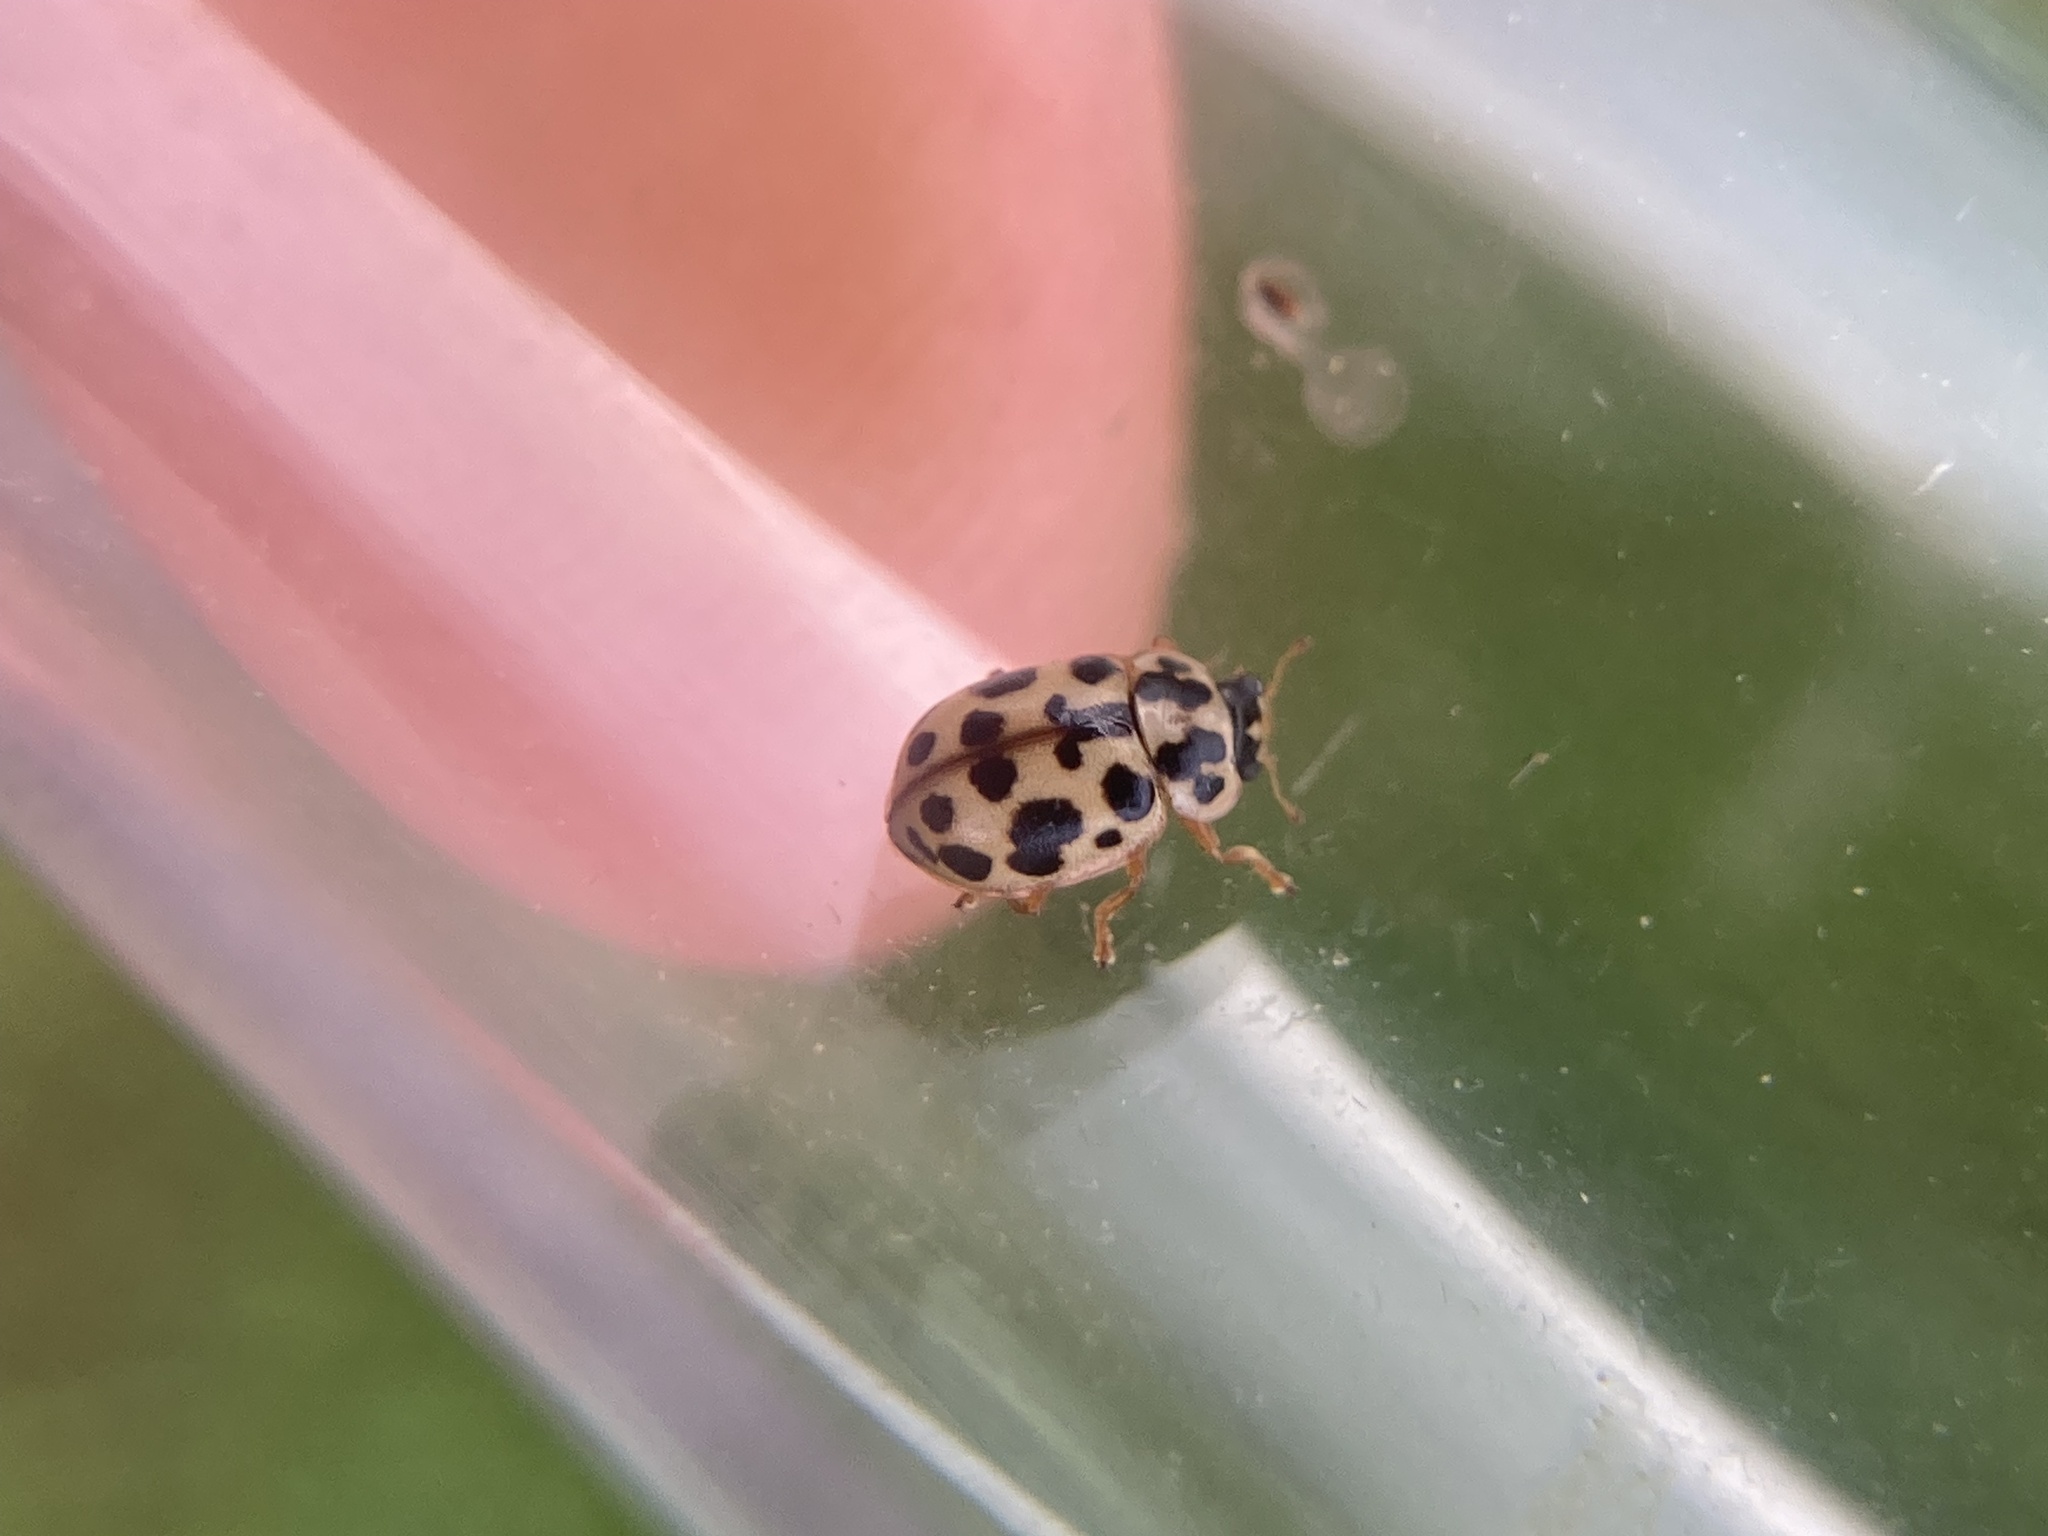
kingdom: Animalia
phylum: Arthropoda
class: Insecta
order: Coleoptera
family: Coccinellidae
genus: Anisosticta
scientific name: Anisosticta bitriangularis
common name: Marsh lady beetle
